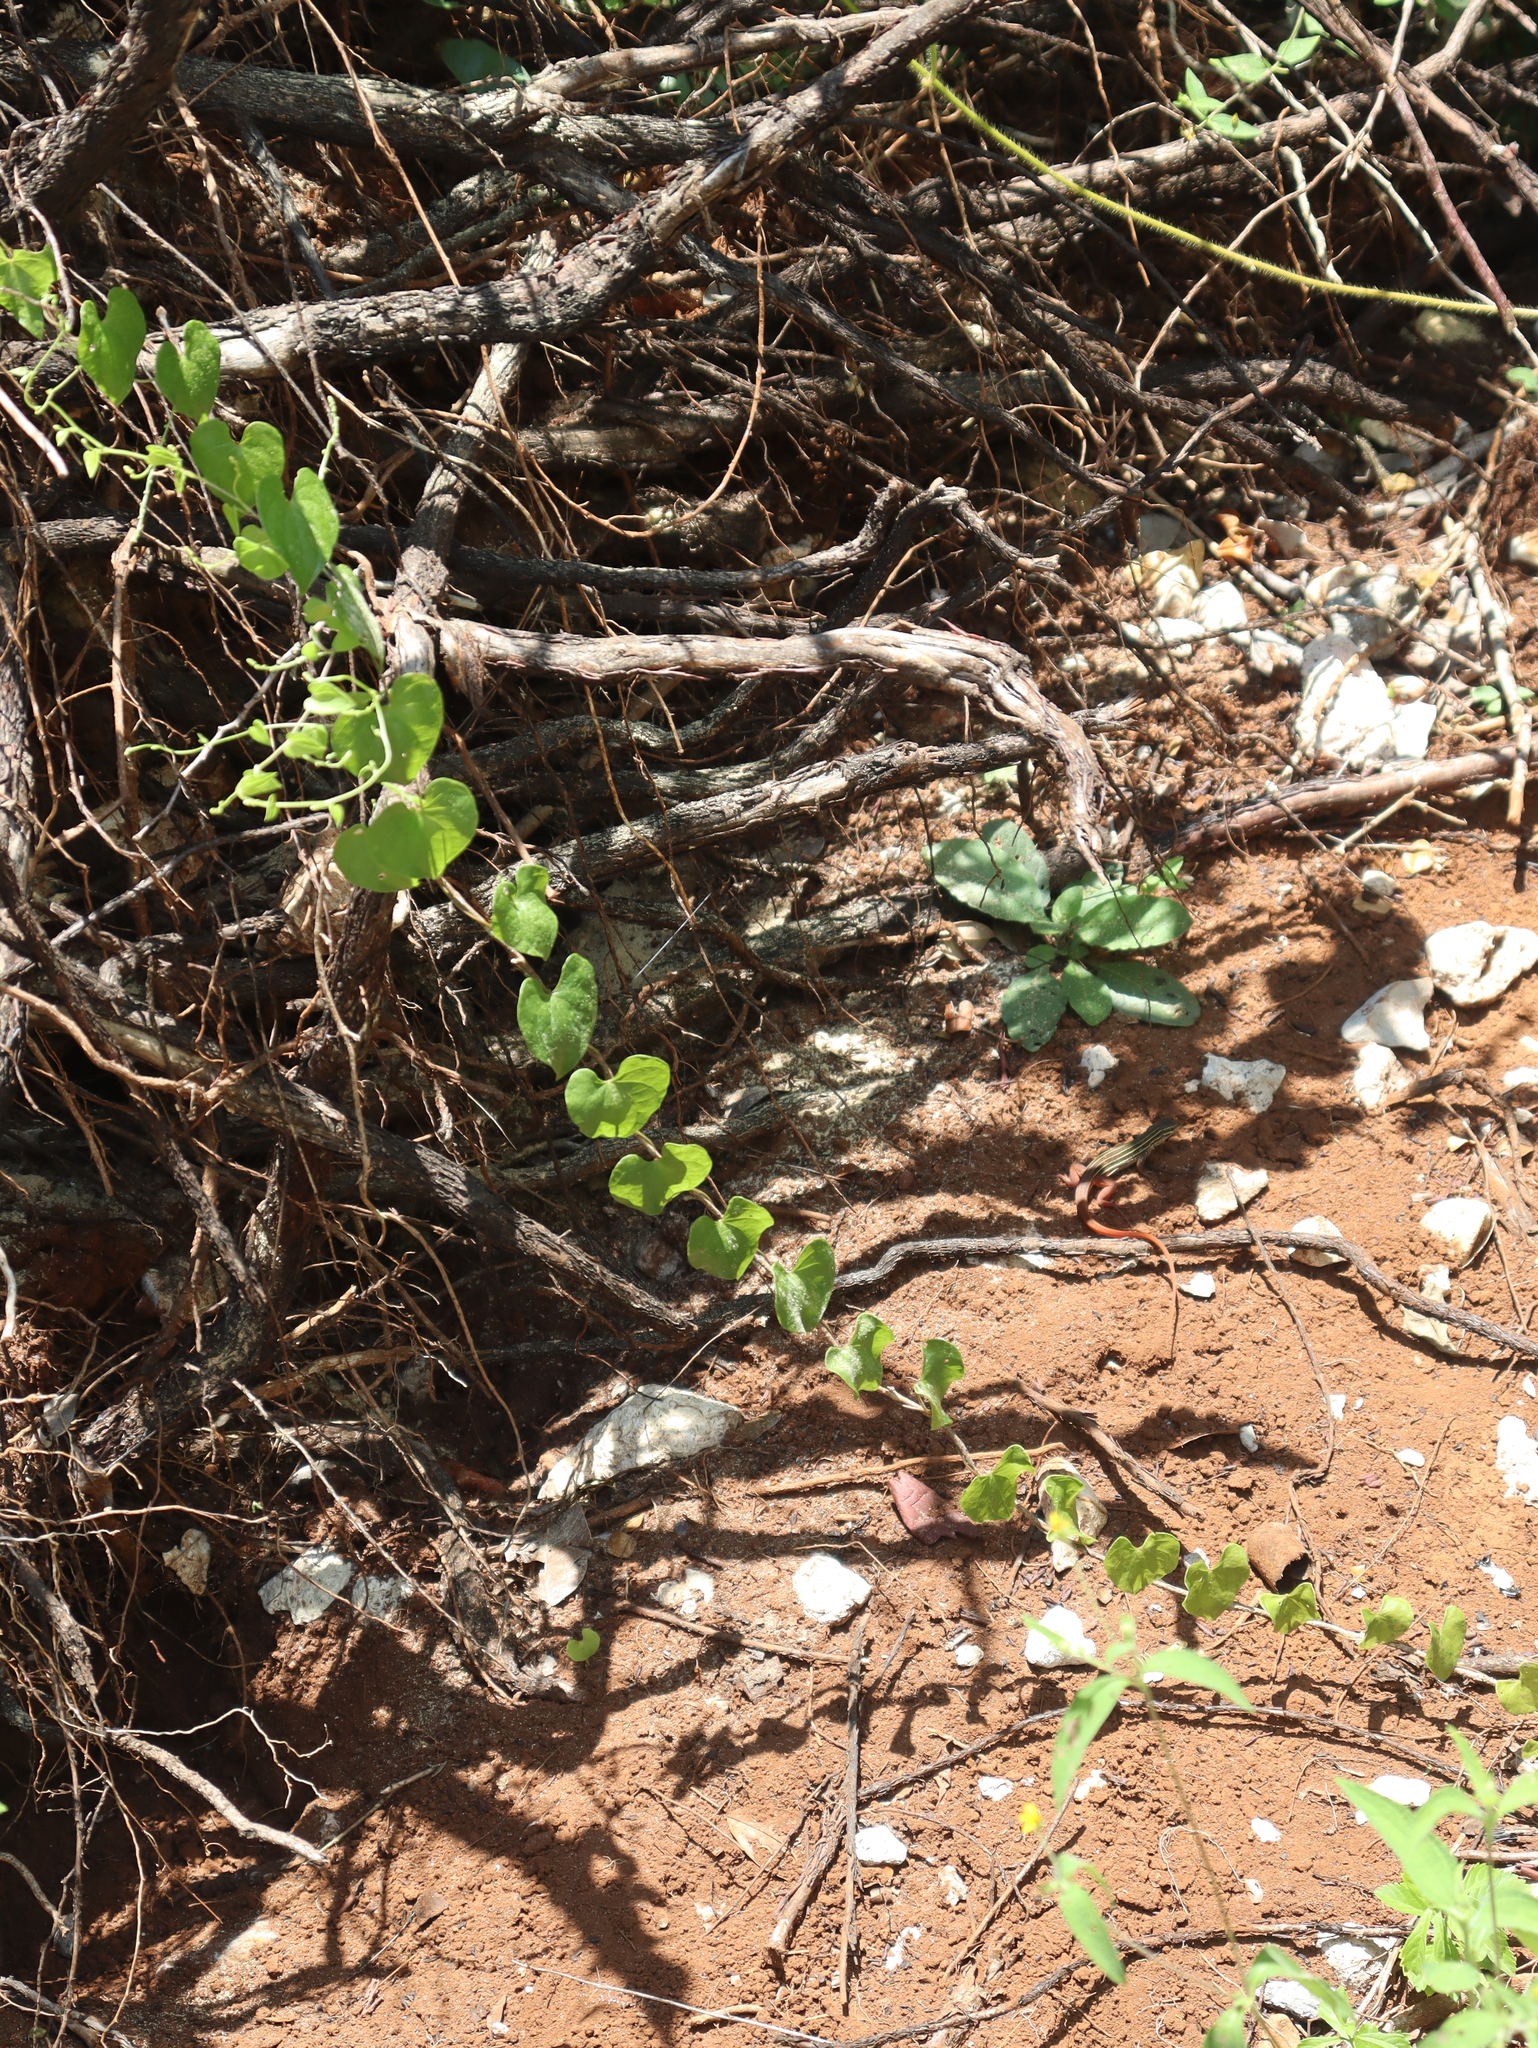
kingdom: Animalia
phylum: Chordata
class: Squamata
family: Teiidae
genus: Aspidoscelis
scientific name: Aspidoscelis angusticeps
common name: Yucatan whiptail
